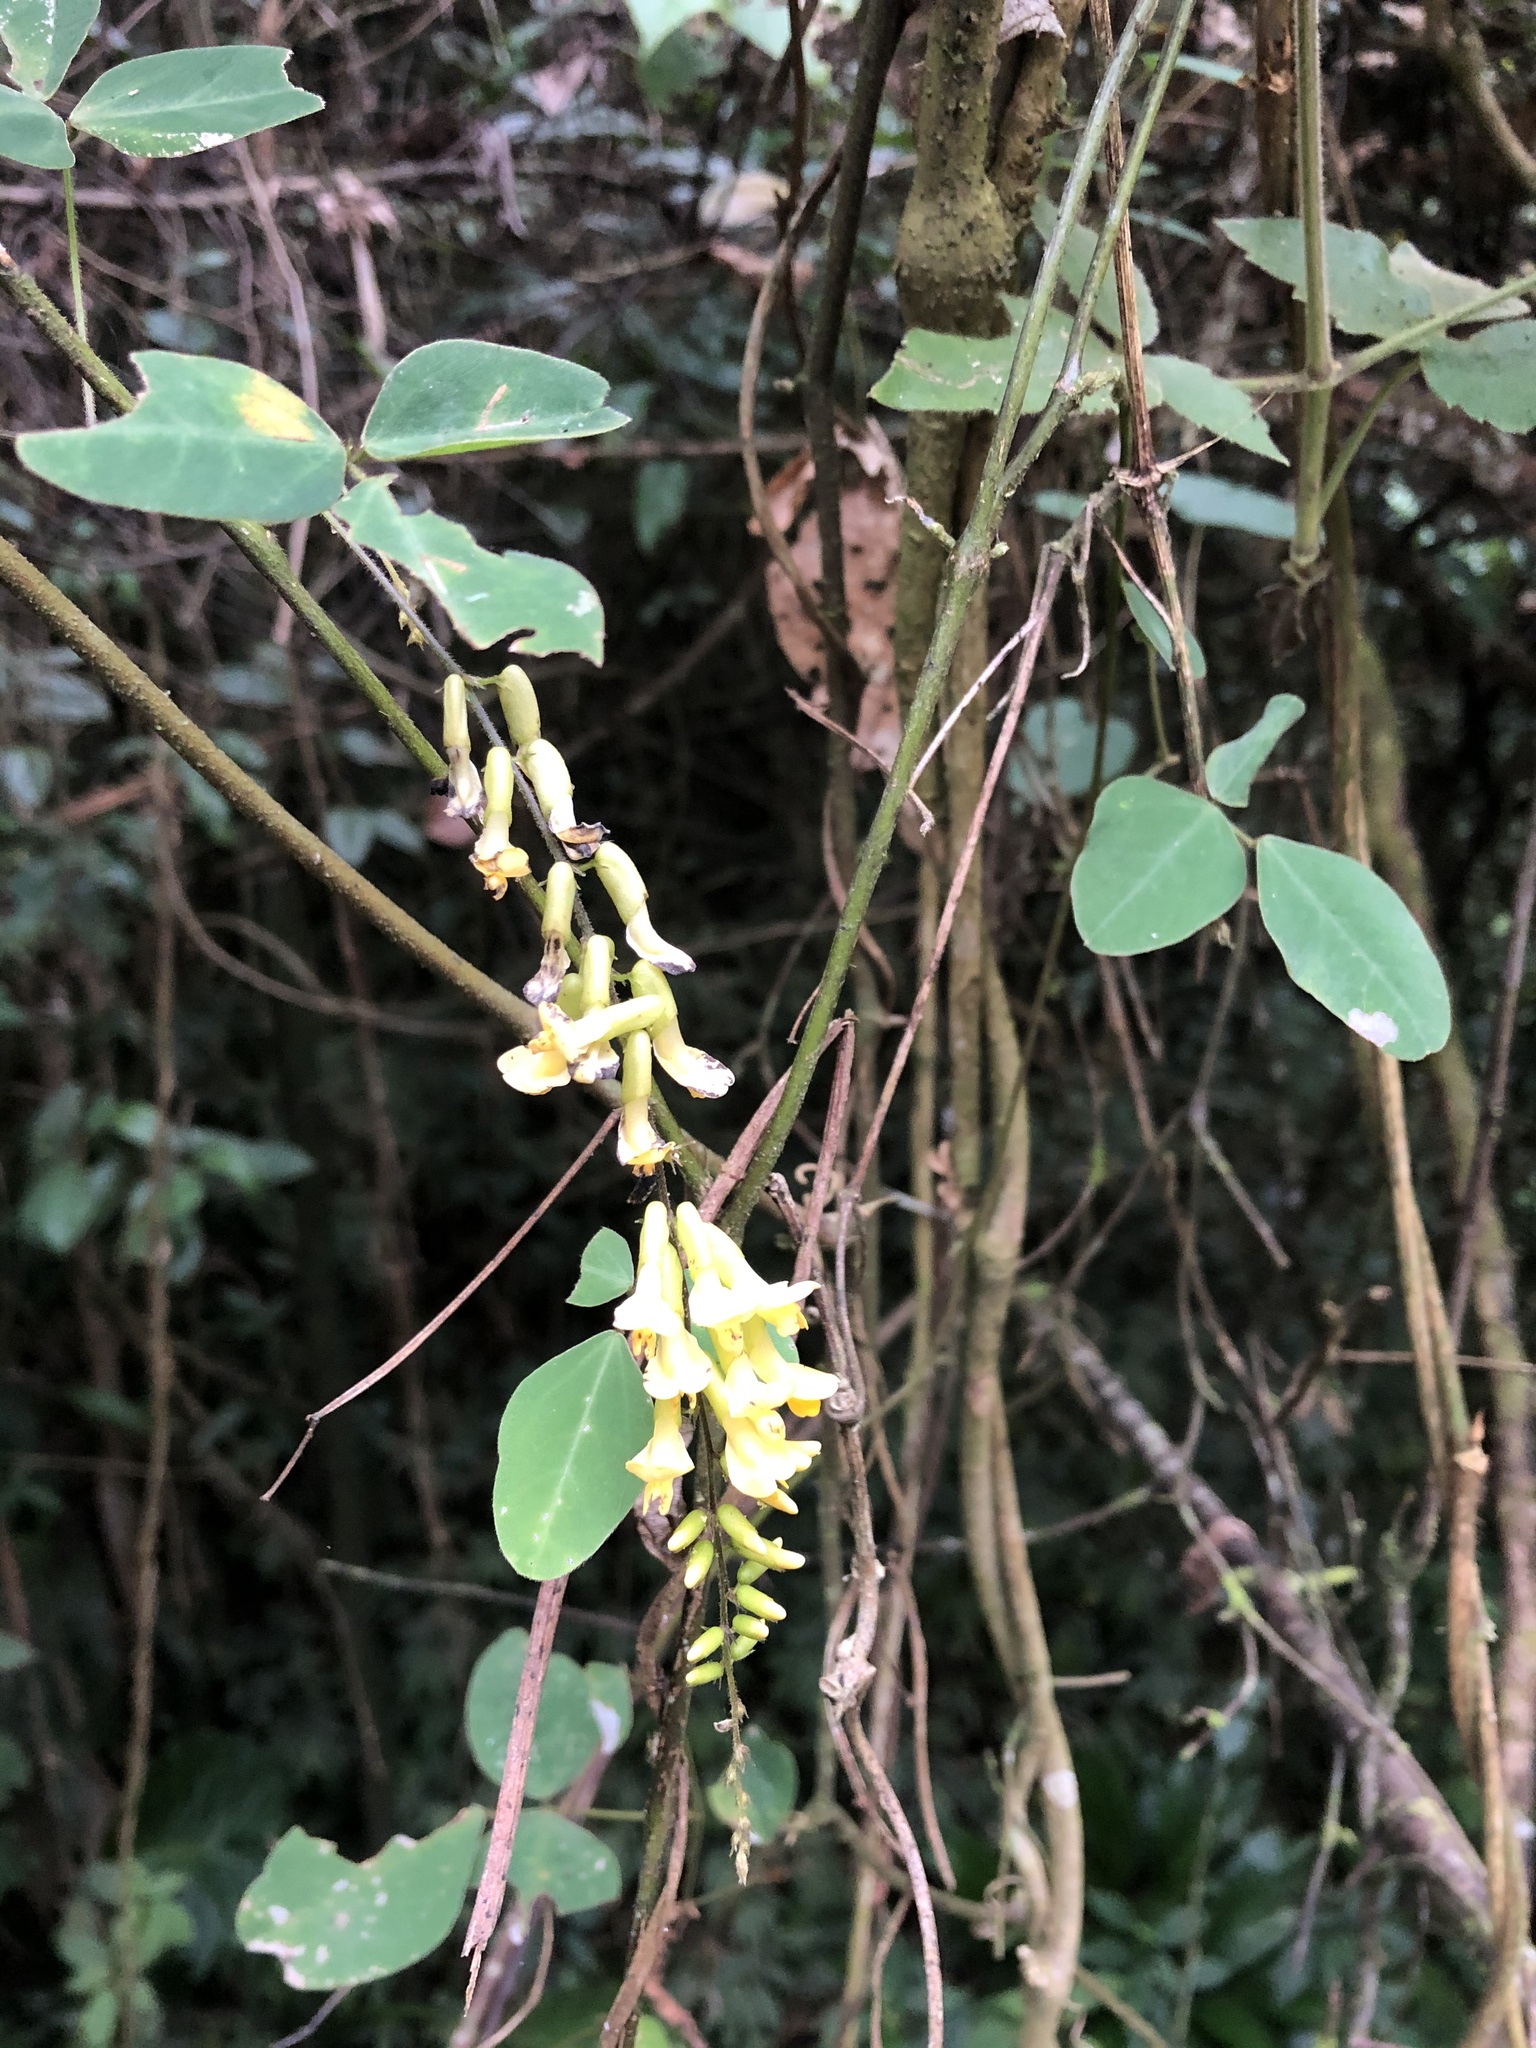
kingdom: Plantae
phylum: Tracheophyta
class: Magnoliopsida
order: Fabales
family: Fabaceae
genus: Dumasia
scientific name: Dumasia villosa
